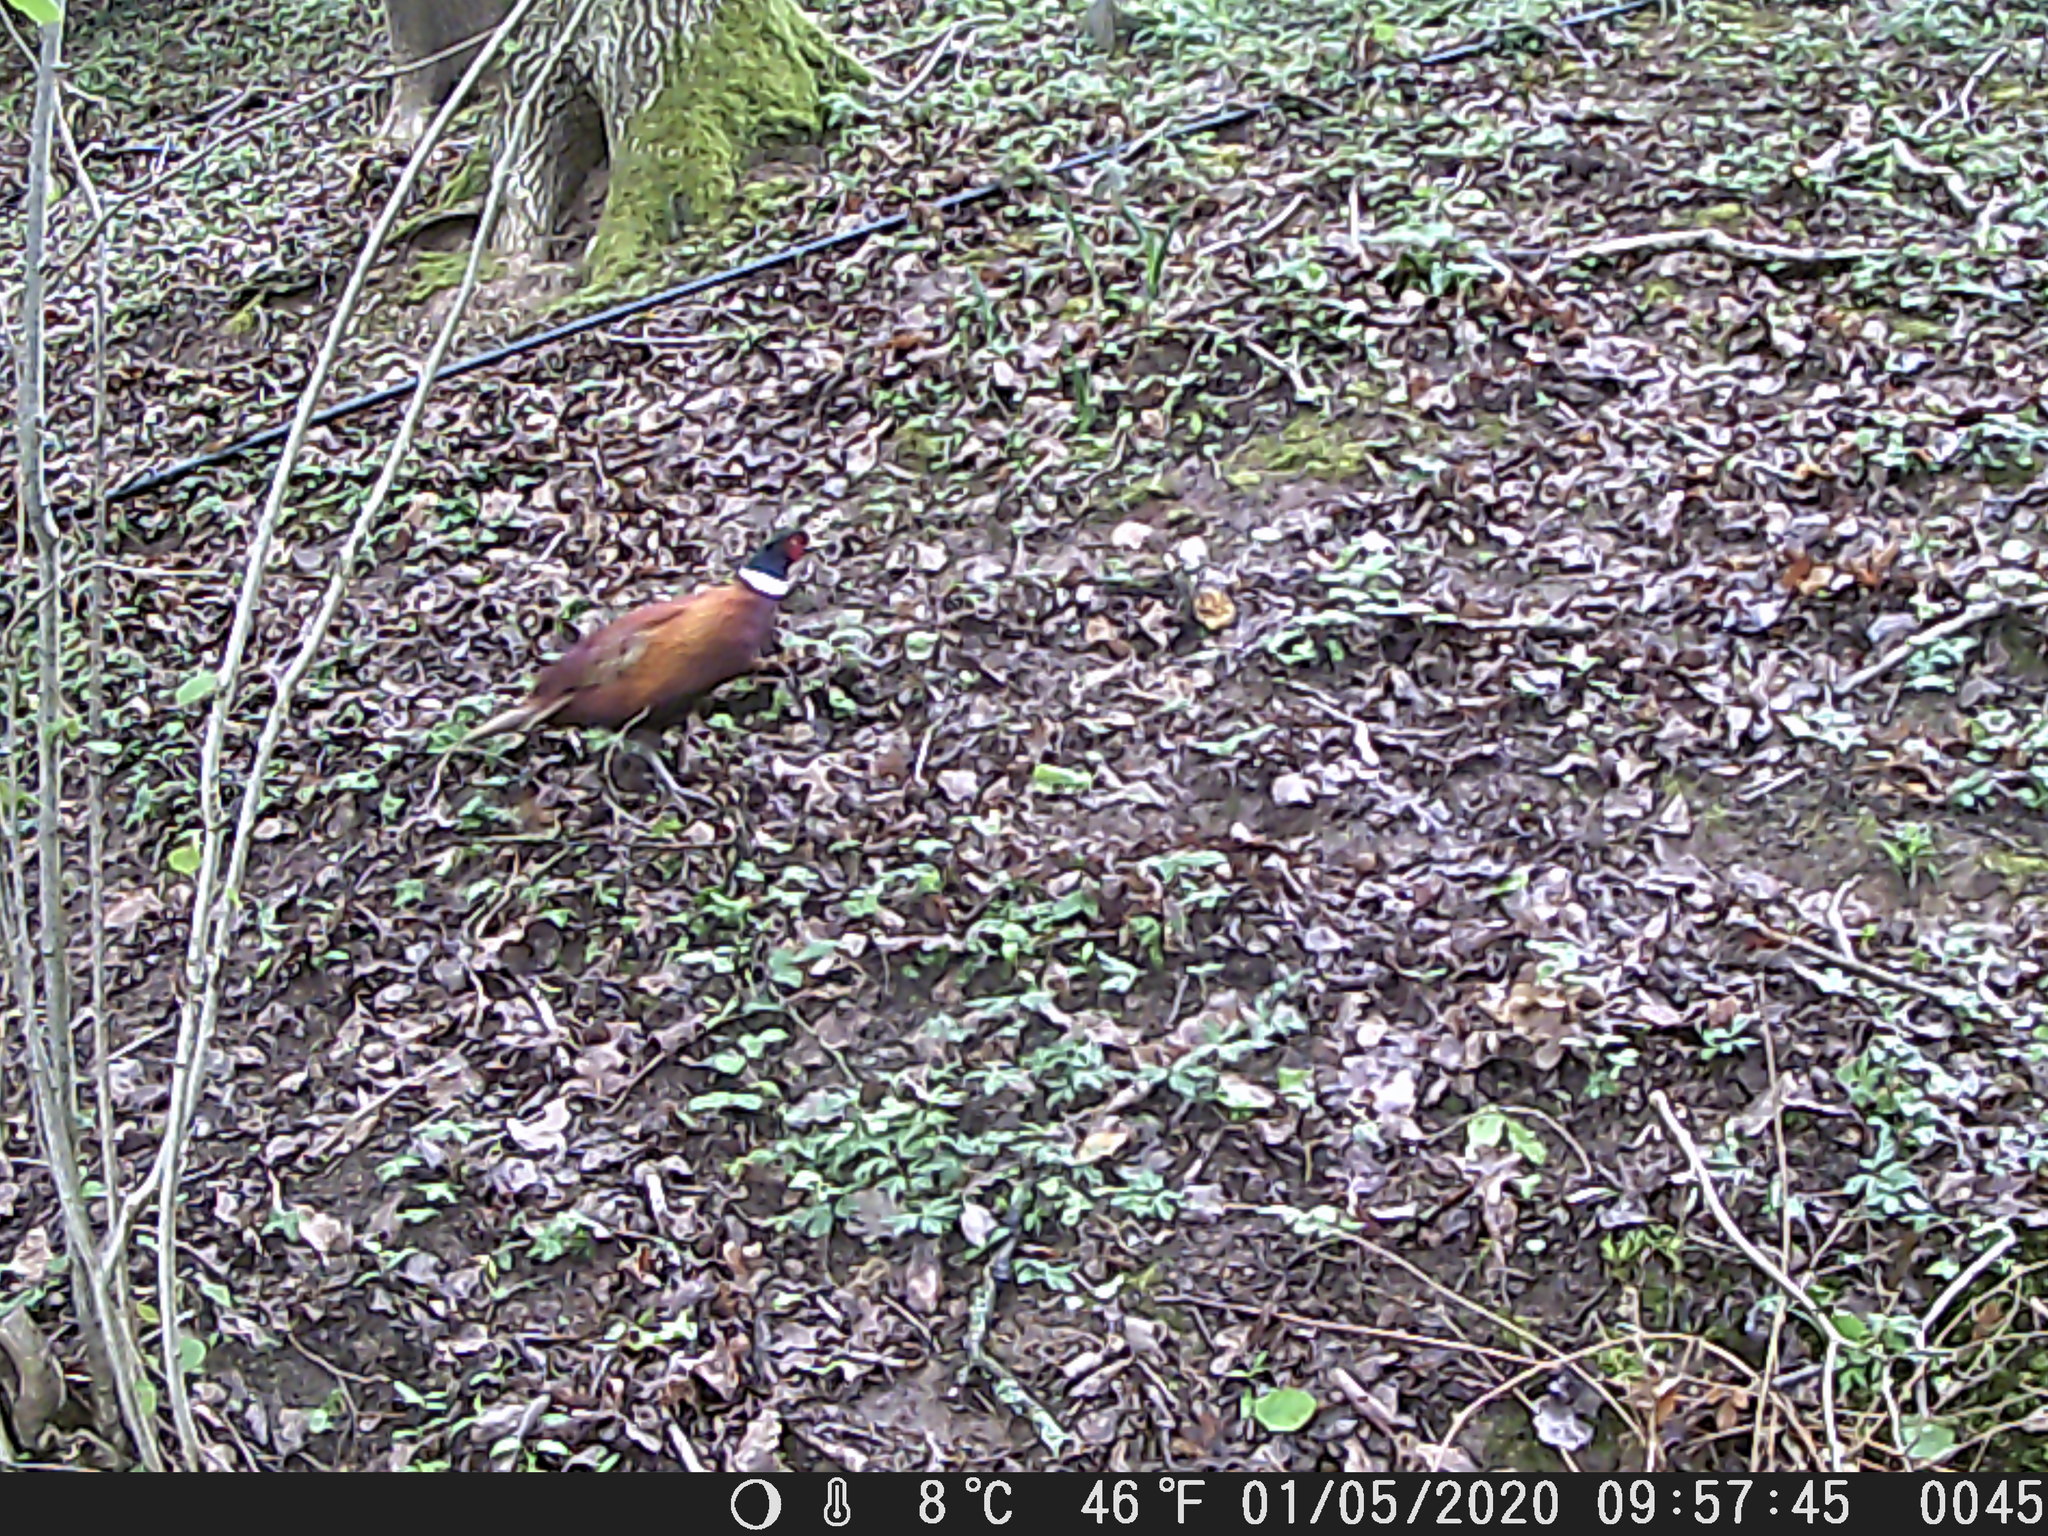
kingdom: Animalia
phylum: Chordata
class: Aves
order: Galliformes
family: Phasianidae
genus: Phasianus
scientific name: Phasianus colchicus
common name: Common pheasant
